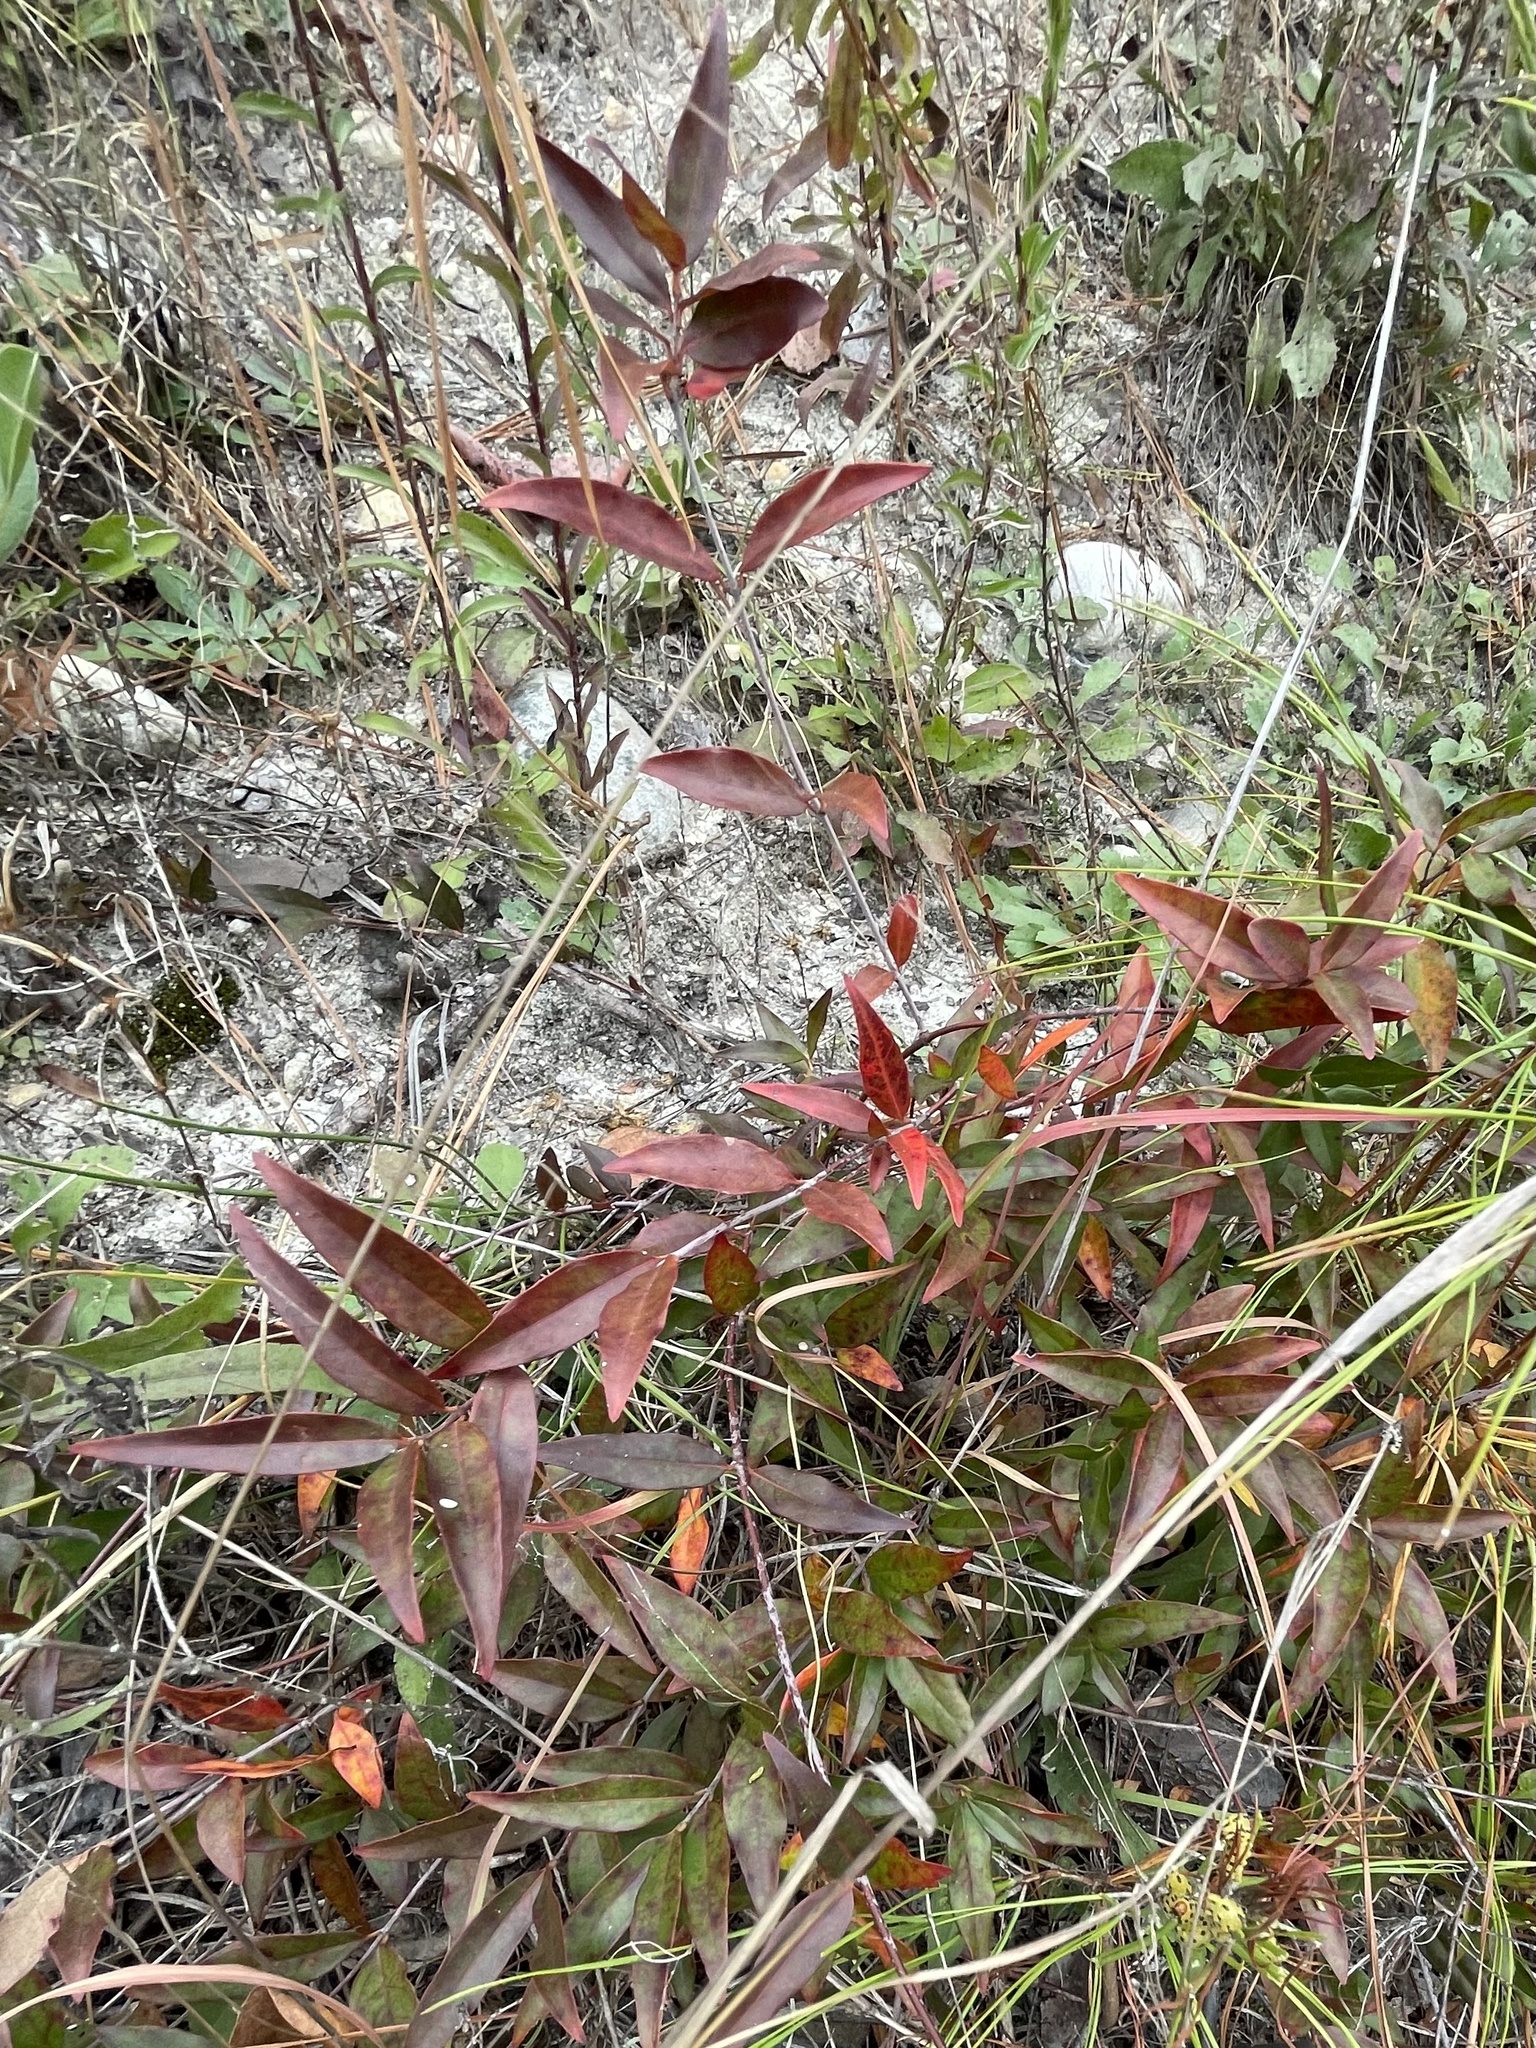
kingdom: Plantae
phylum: Tracheophyta
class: Magnoliopsida
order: Gentianales
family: Gelsemiaceae
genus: Gelsemium
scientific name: Gelsemium sempervirens
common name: Carolina-jasmine
